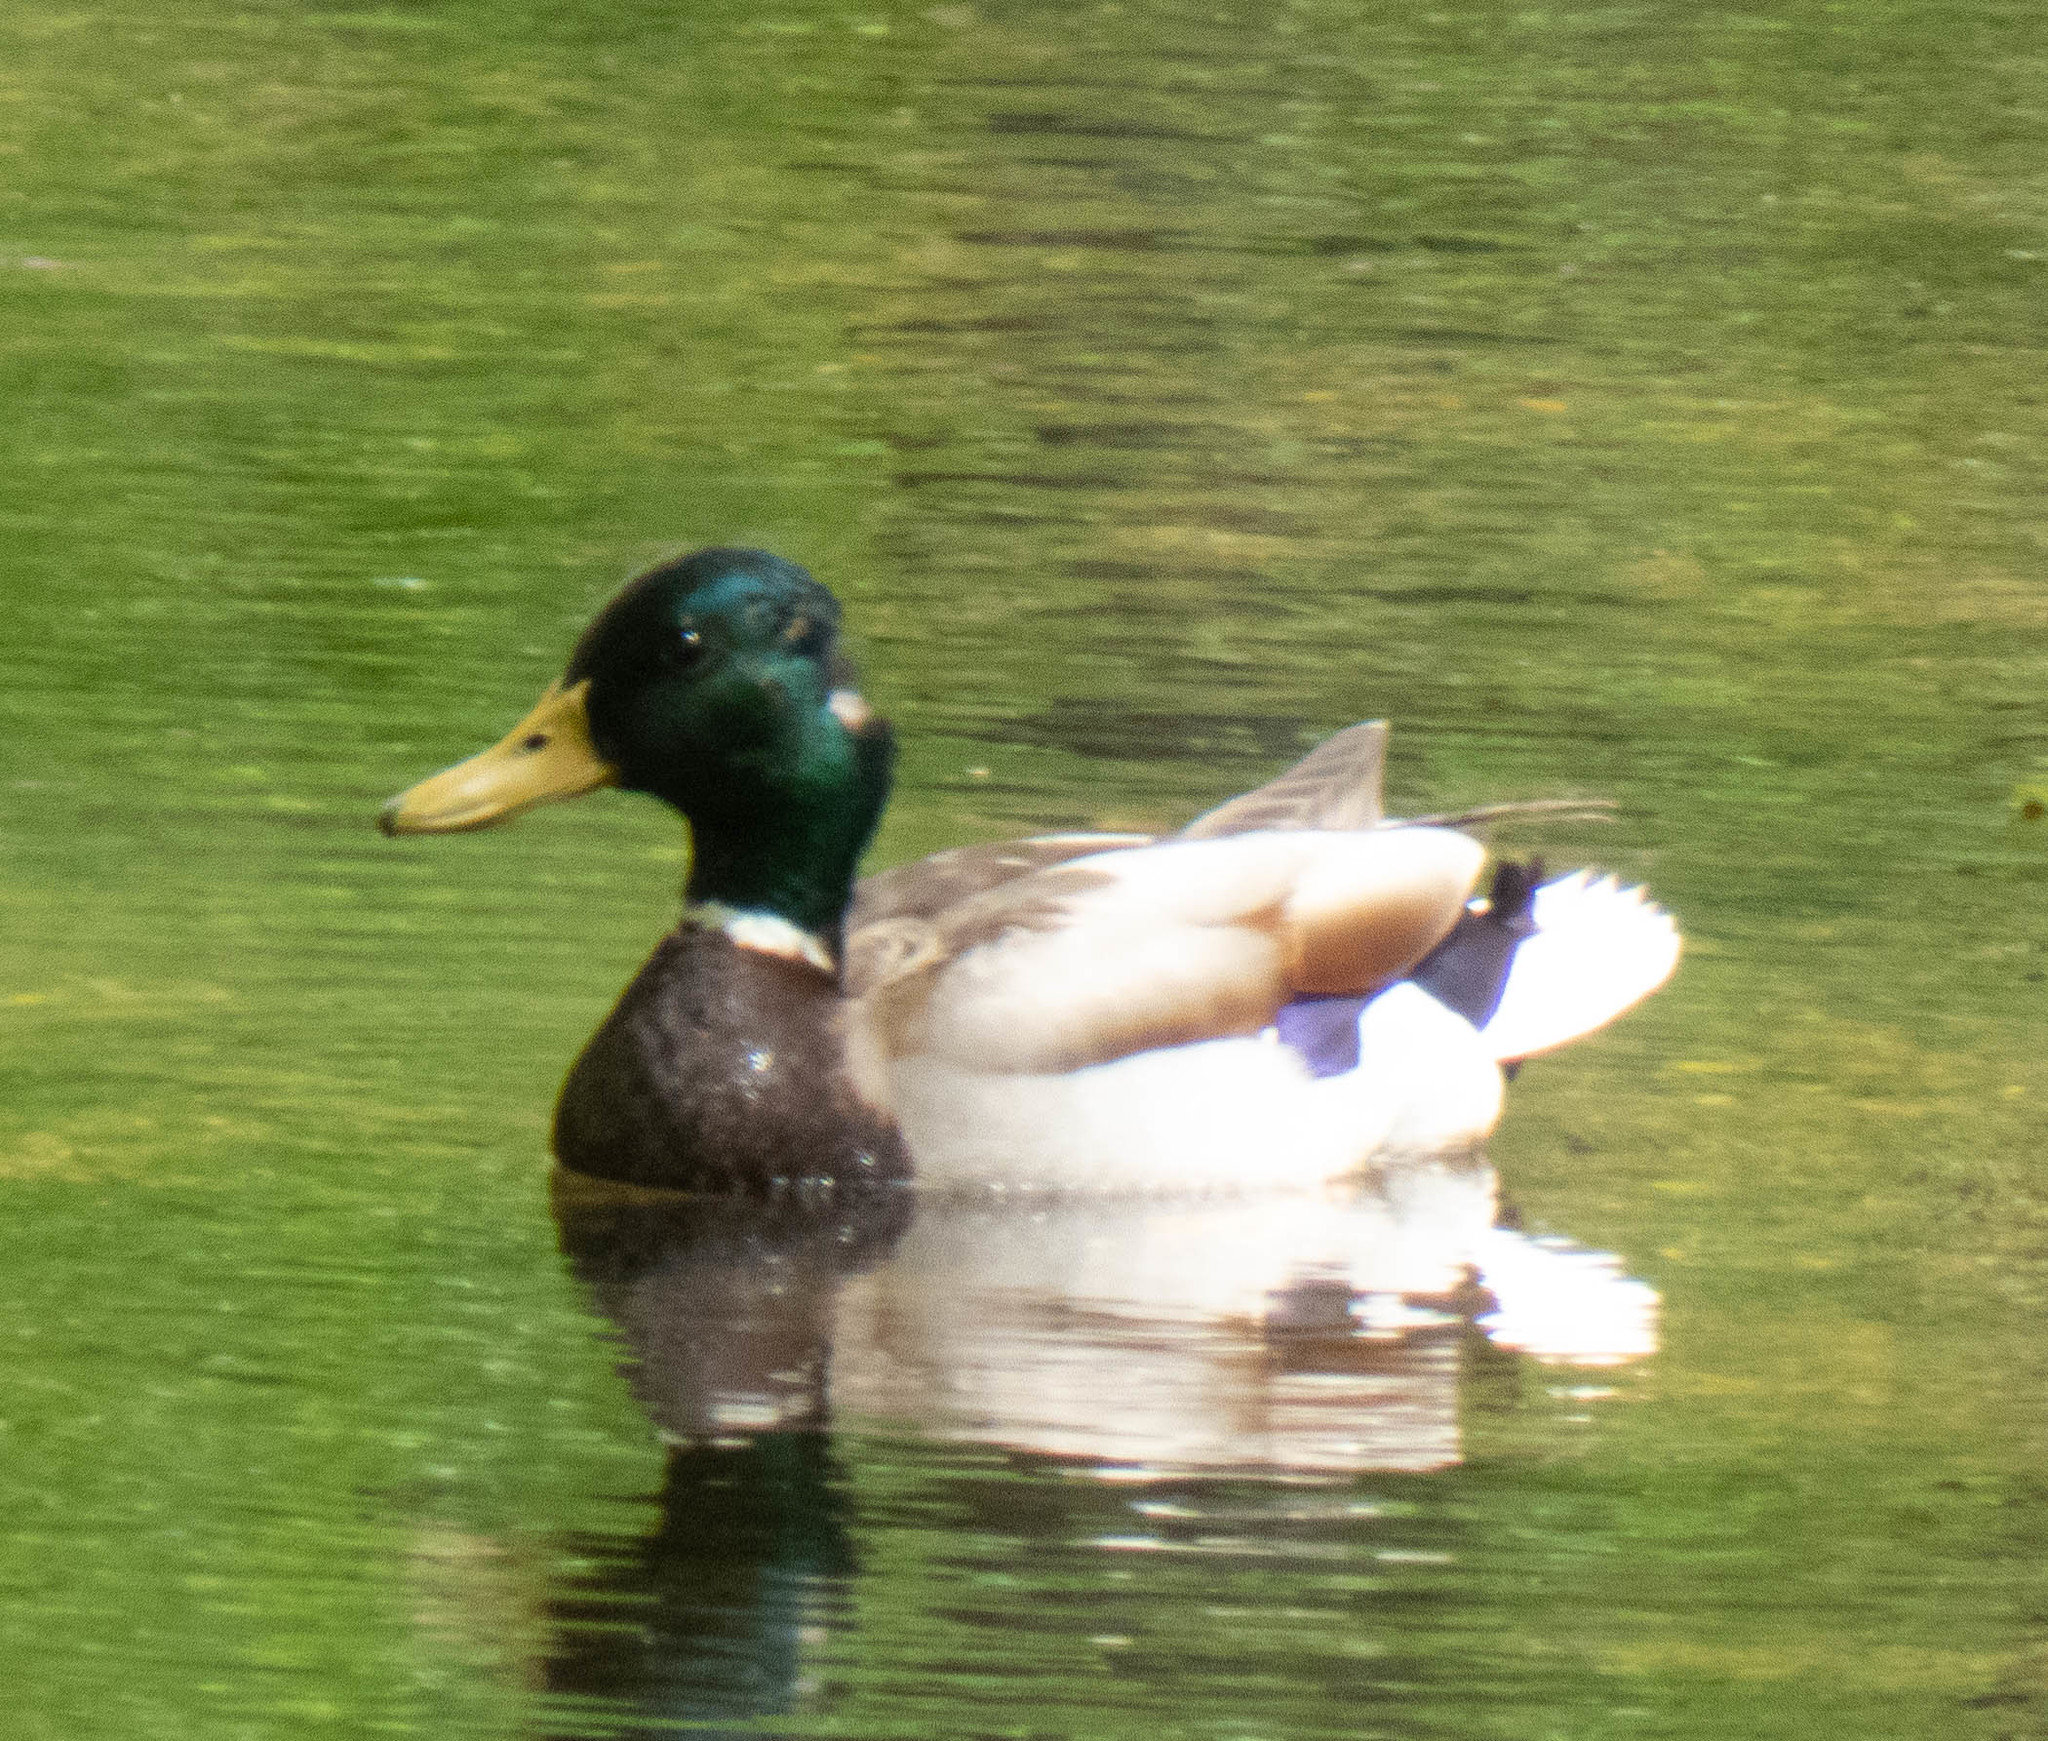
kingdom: Animalia
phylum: Chordata
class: Aves
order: Anseriformes
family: Anatidae
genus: Anas
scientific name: Anas platyrhynchos
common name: Mallard
